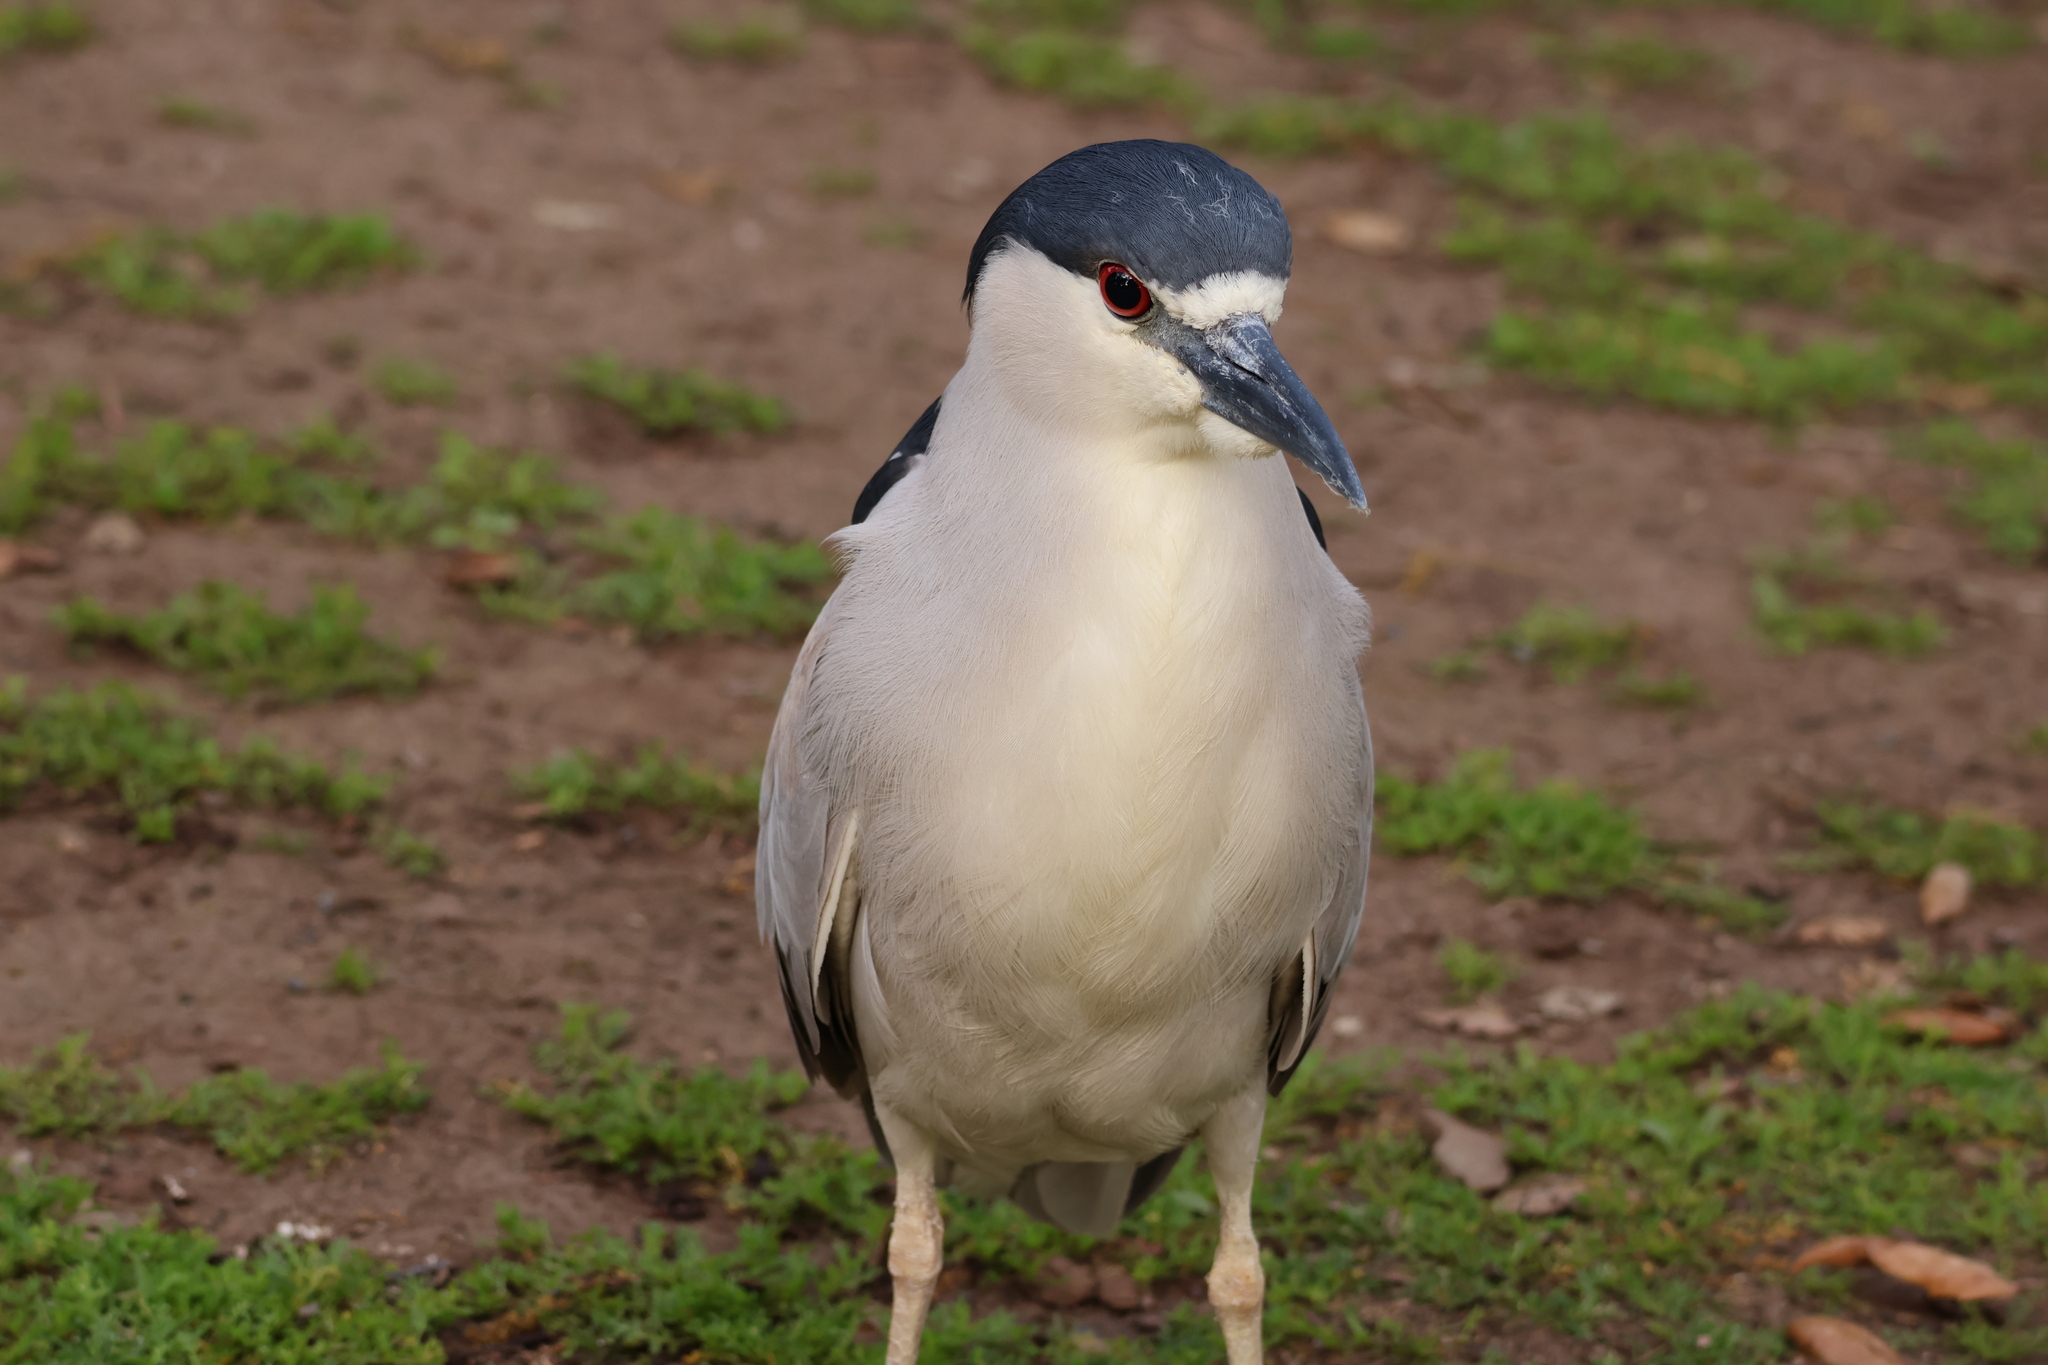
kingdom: Animalia
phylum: Chordata
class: Aves
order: Pelecaniformes
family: Ardeidae
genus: Nycticorax
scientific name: Nycticorax nycticorax
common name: Black-crowned night heron
